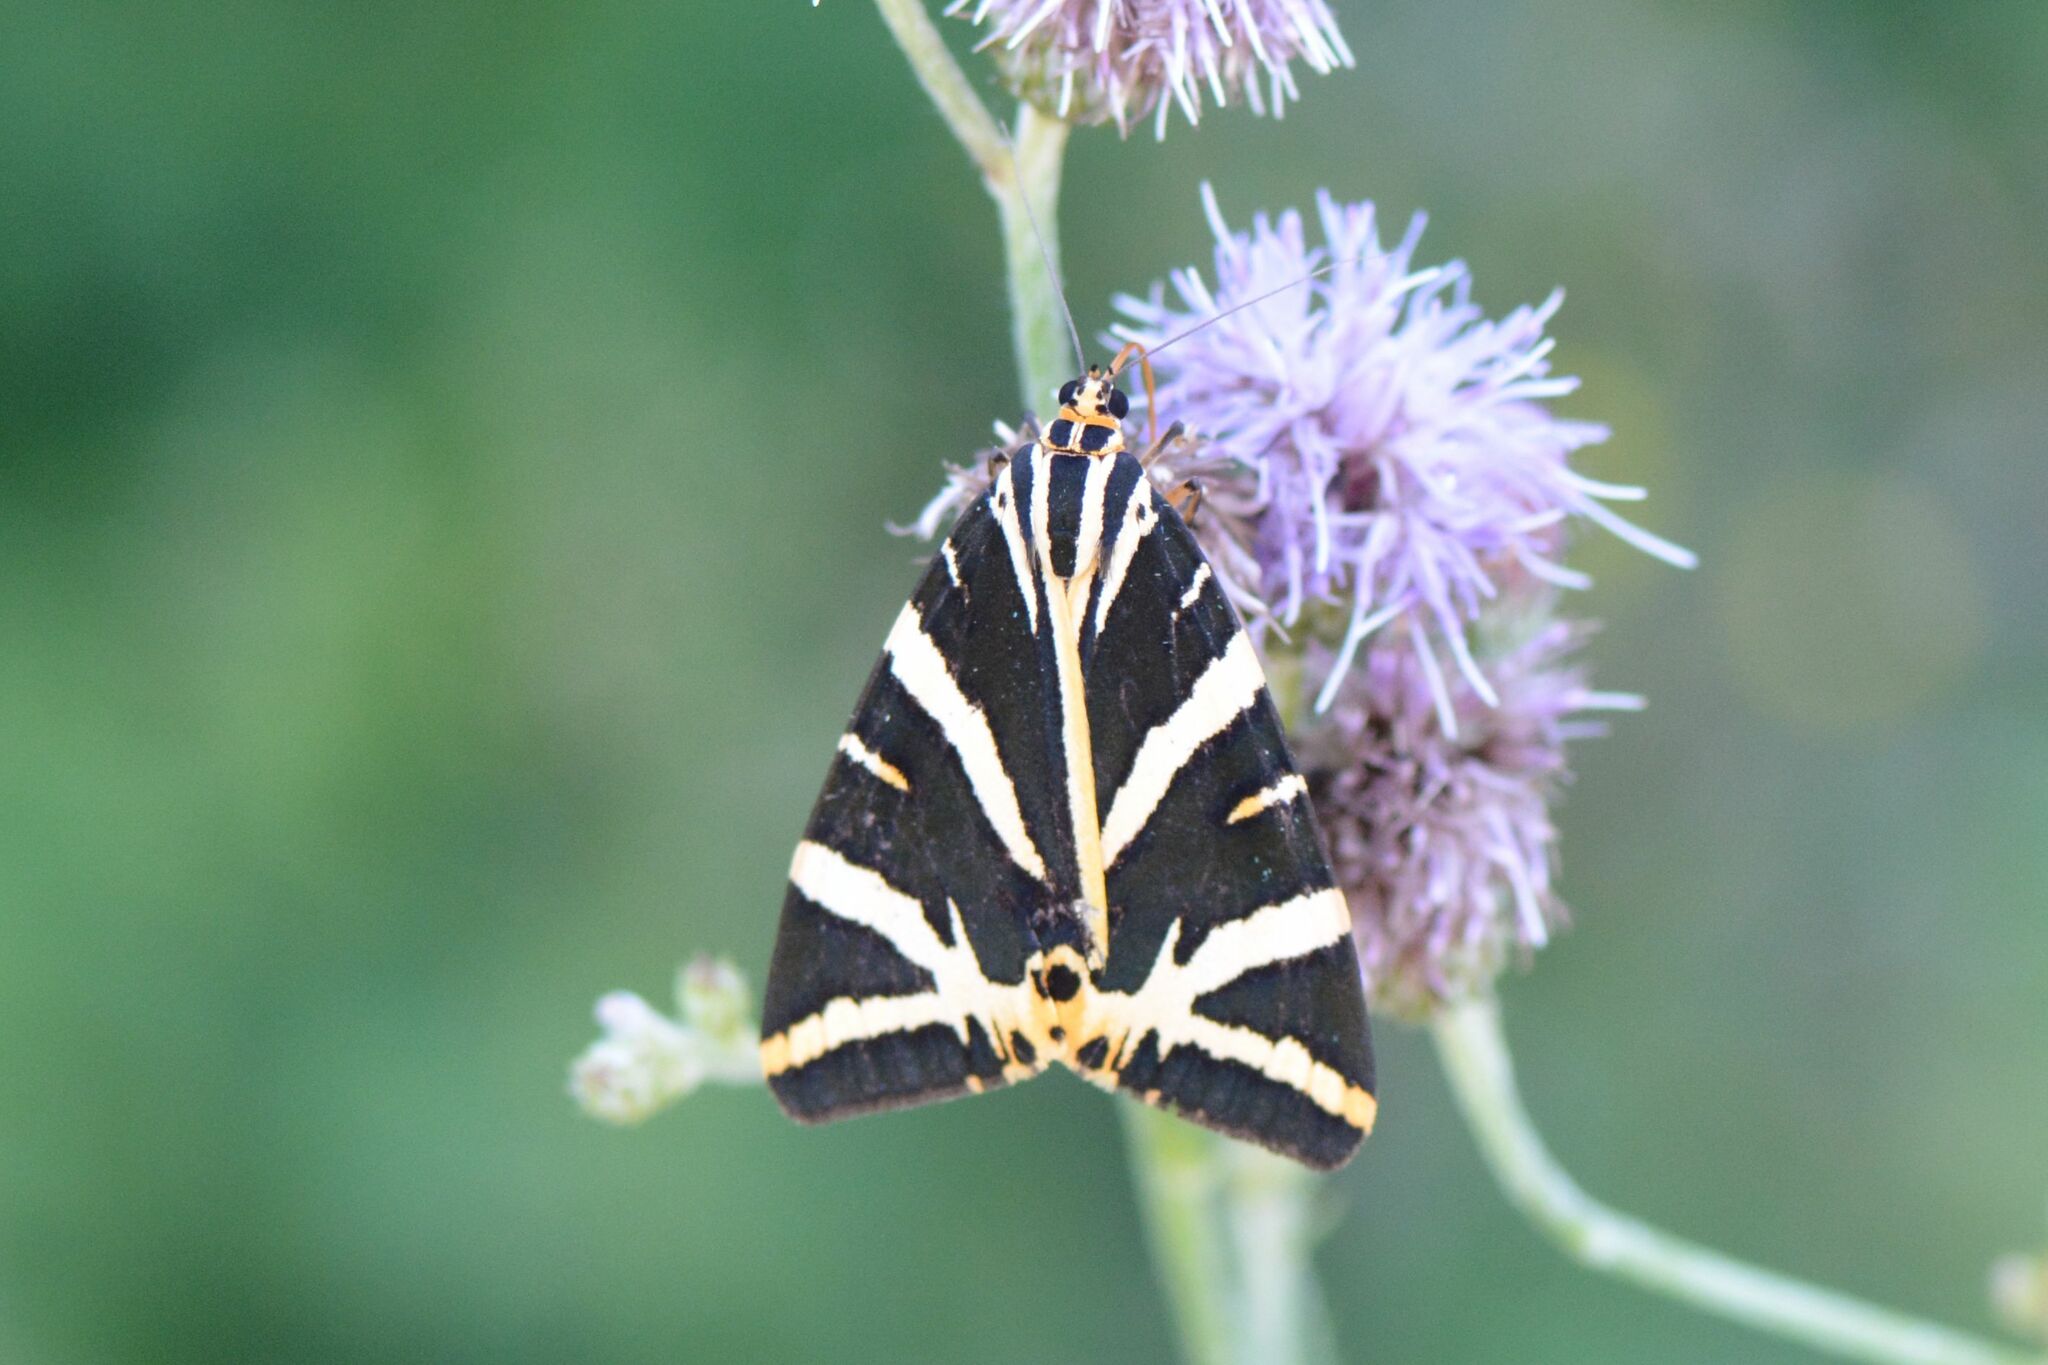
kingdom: Animalia
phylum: Arthropoda
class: Insecta
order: Lepidoptera
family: Erebidae
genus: Euplagia
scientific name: Euplagia quadripunctaria
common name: Jersey tiger
